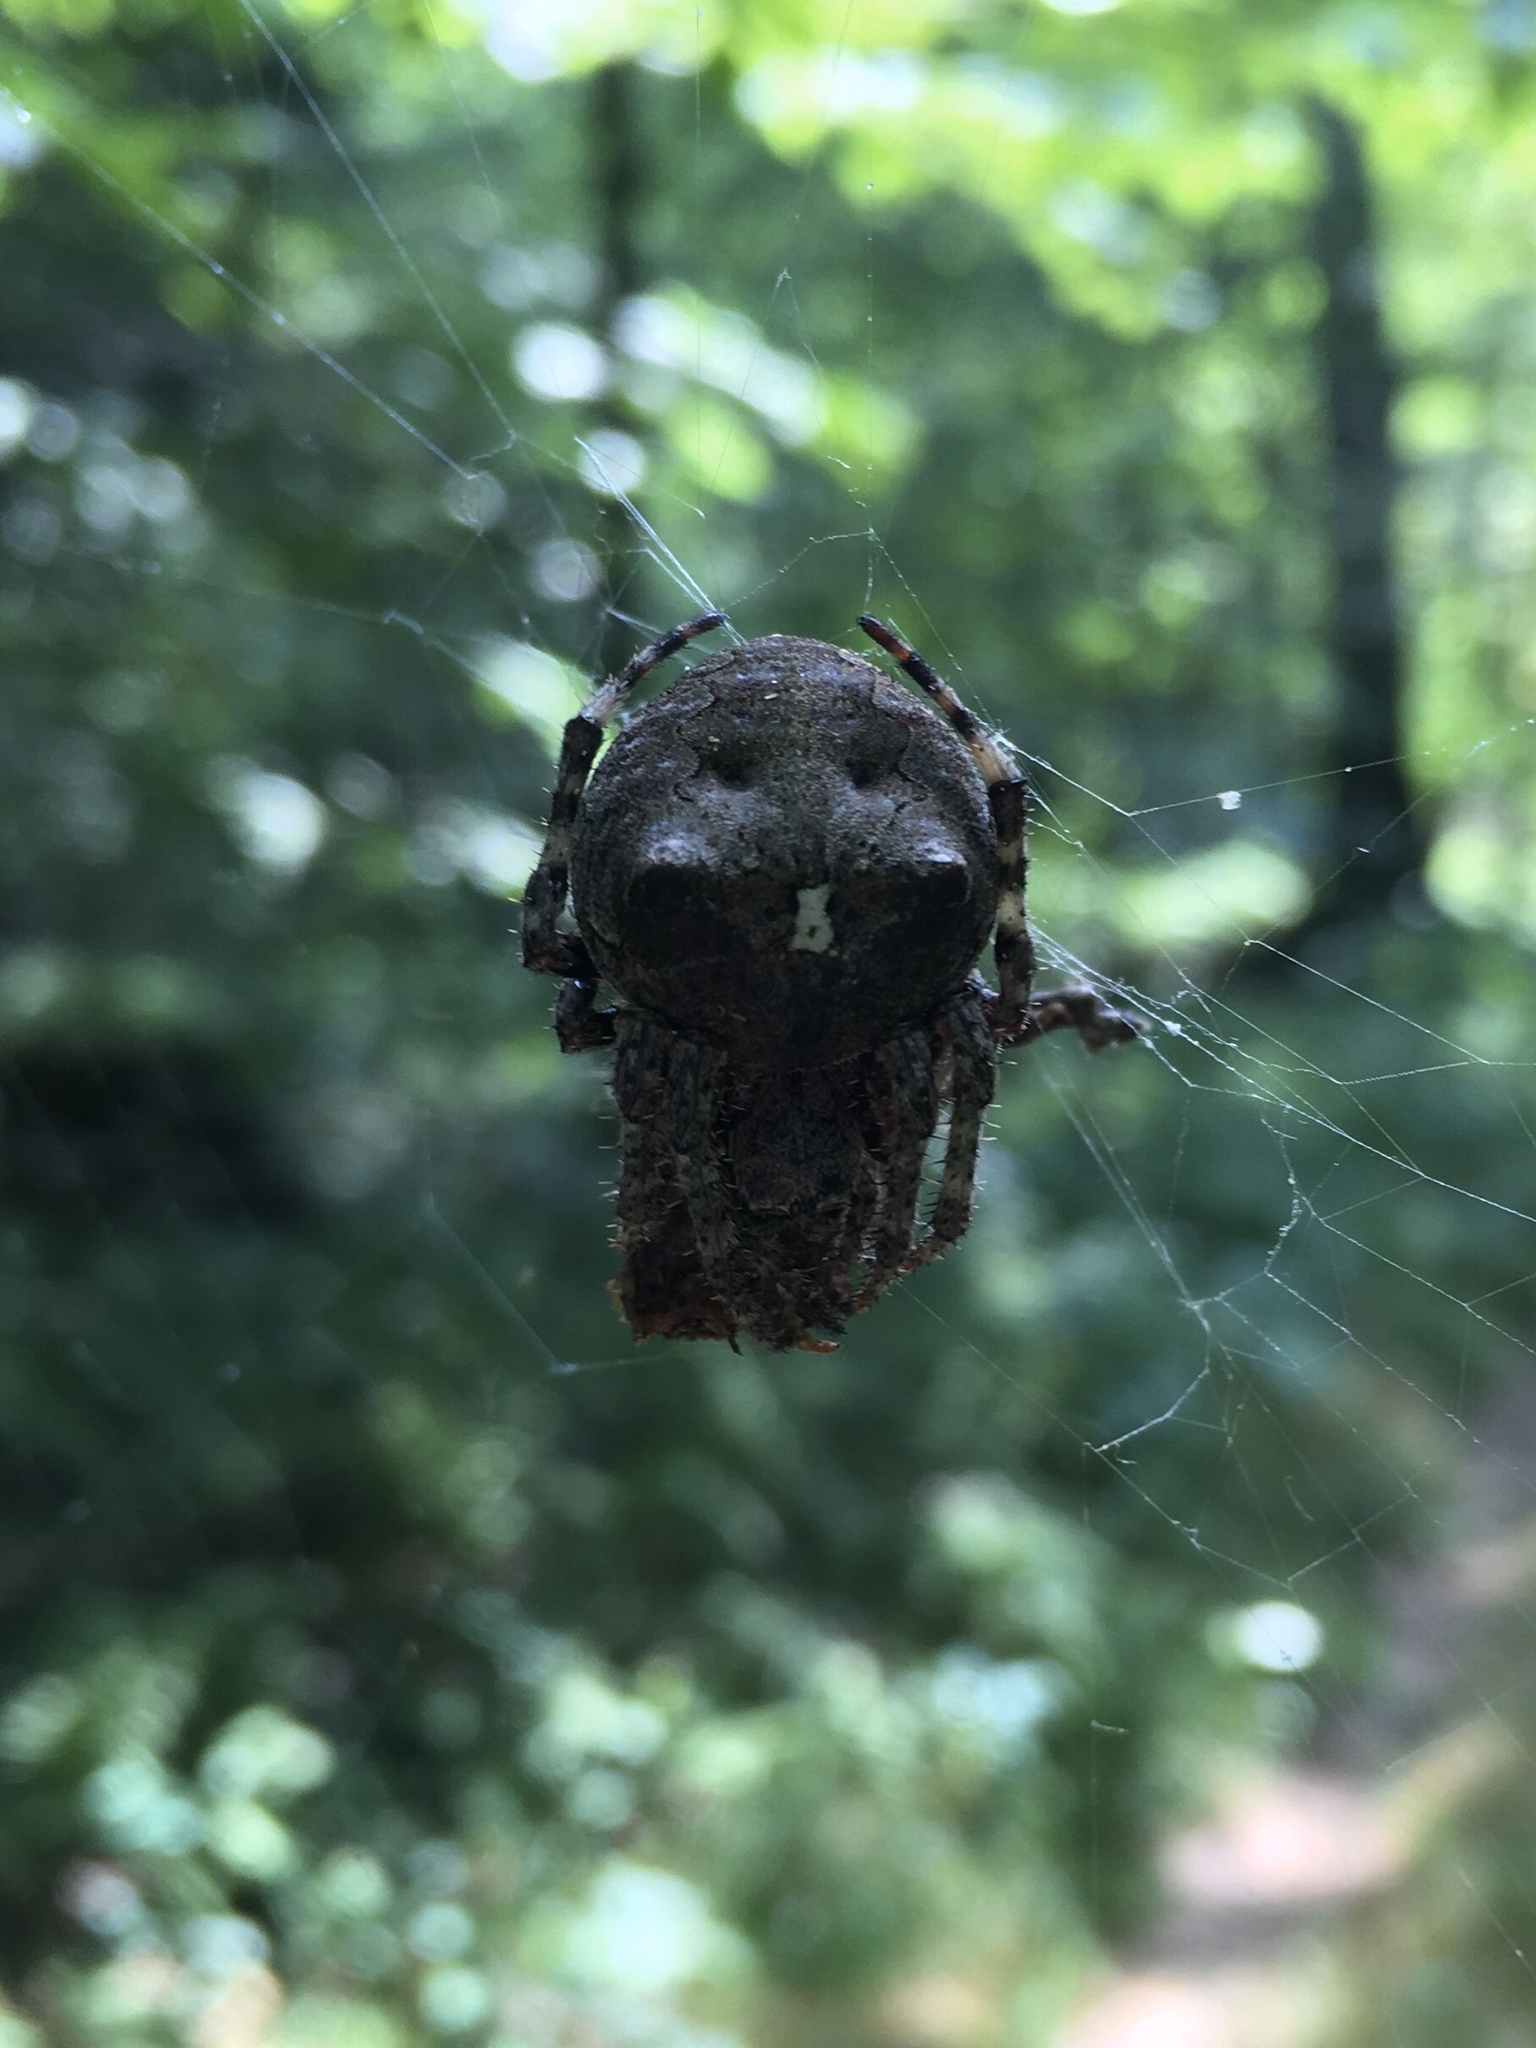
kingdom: Animalia
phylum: Arthropoda
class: Arachnida
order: Araneae
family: Araneidae
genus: Araneus
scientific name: Araneus bicentenarius
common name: Giant lichen orbweaver
